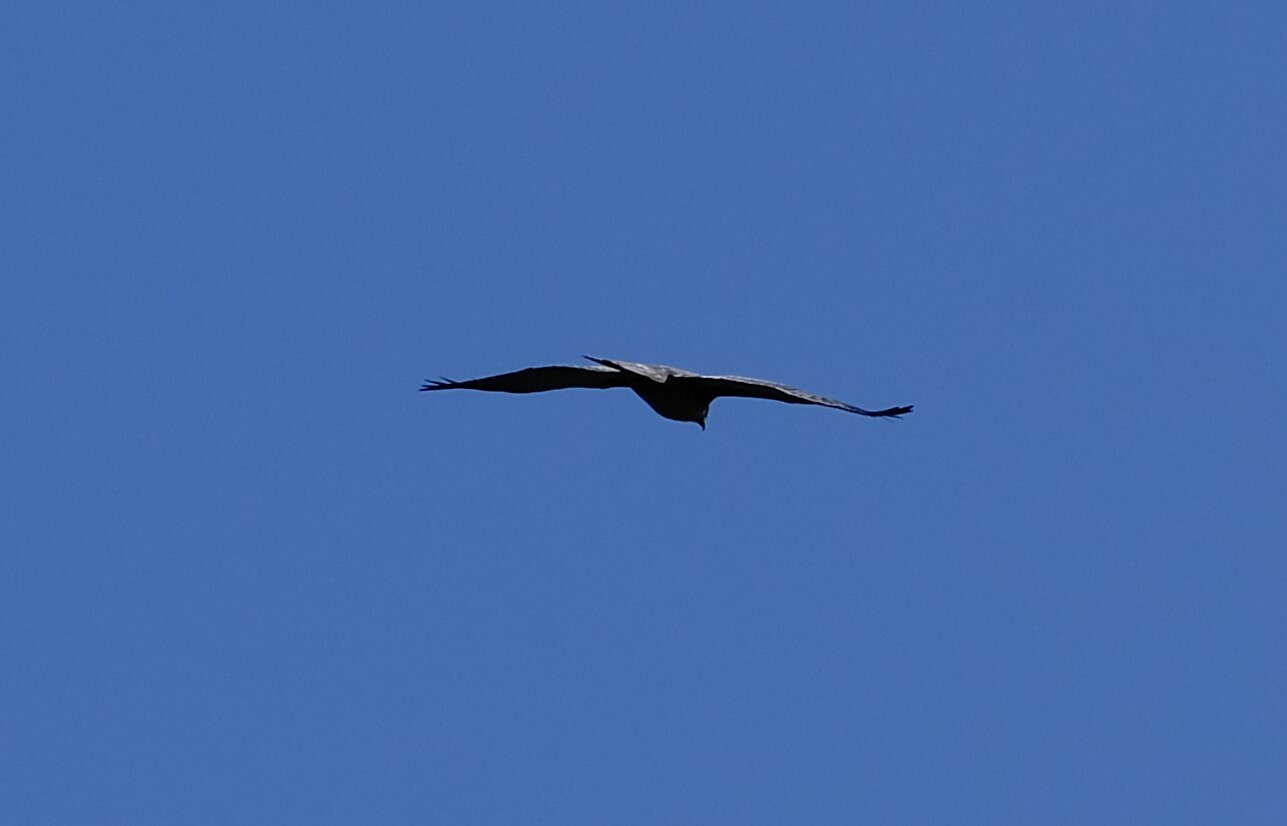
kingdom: Animalia
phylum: Chordata
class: Aves
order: Accipitriformes
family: Accipitridae
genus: Hieraaetus
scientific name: Hieraaetus morphnoides
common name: Little eagle
